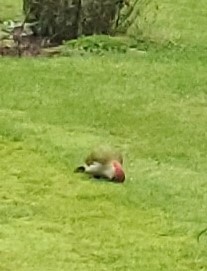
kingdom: Animalia
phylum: Chordata
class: Aves
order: Piciformes
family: Picidae
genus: Picus
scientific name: Picus viridis
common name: European green woodpecker
